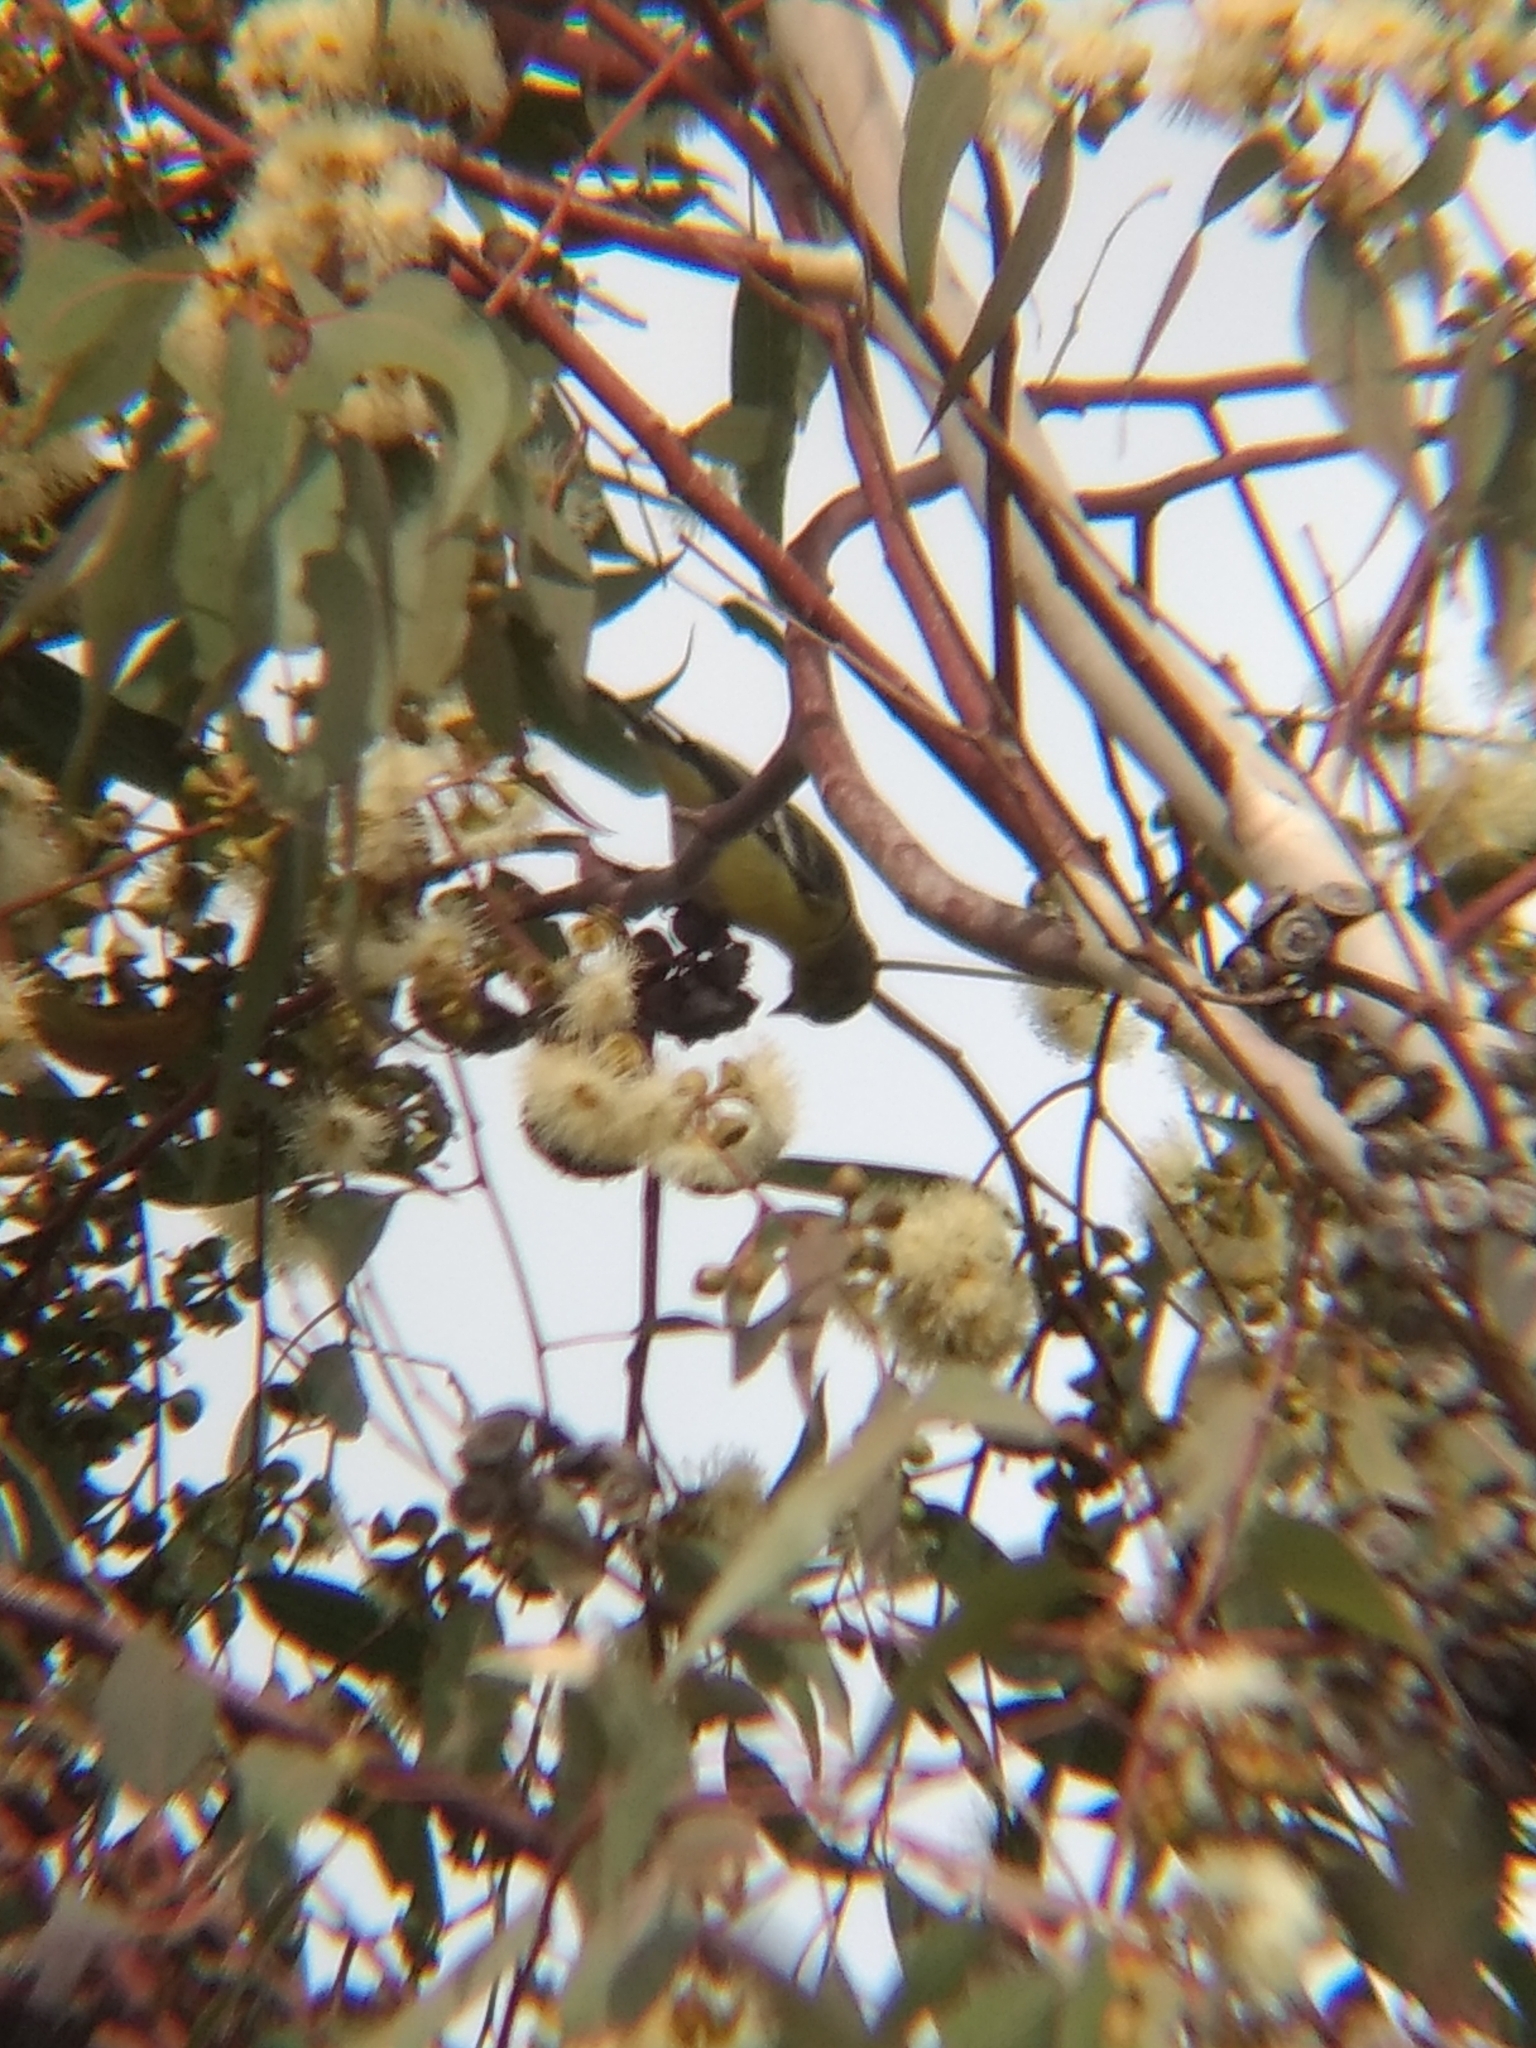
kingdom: Animalia
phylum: Chordata
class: Aves
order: Passeriformes
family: Fringillidae
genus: Spinus
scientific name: Spinus psaltria
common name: Lesser goldfinch
